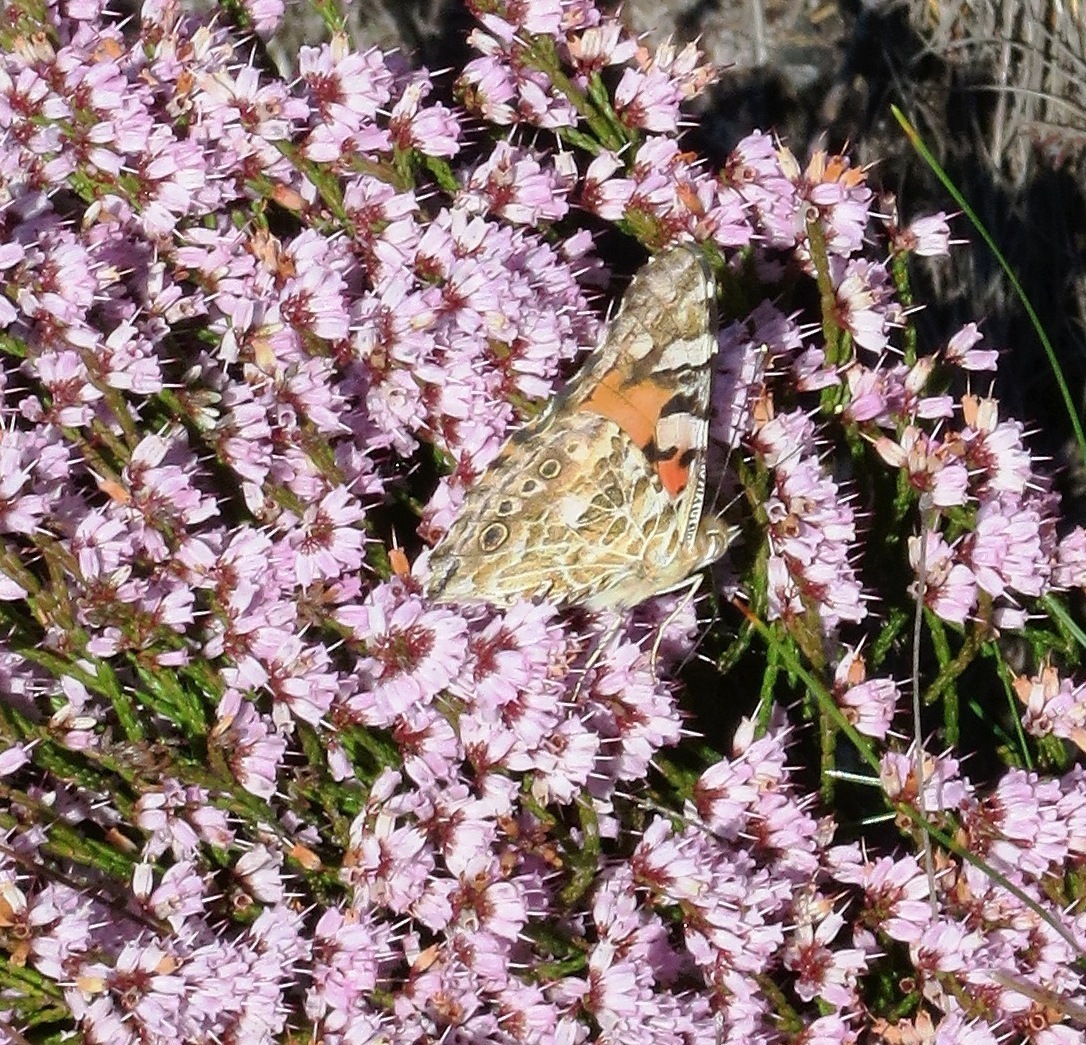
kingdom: Animalia
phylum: Arthropoda
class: Insecta
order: Lepidoptera
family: Nymphalidae
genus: Vanessa
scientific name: Vanessa cardui
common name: Painted lady
